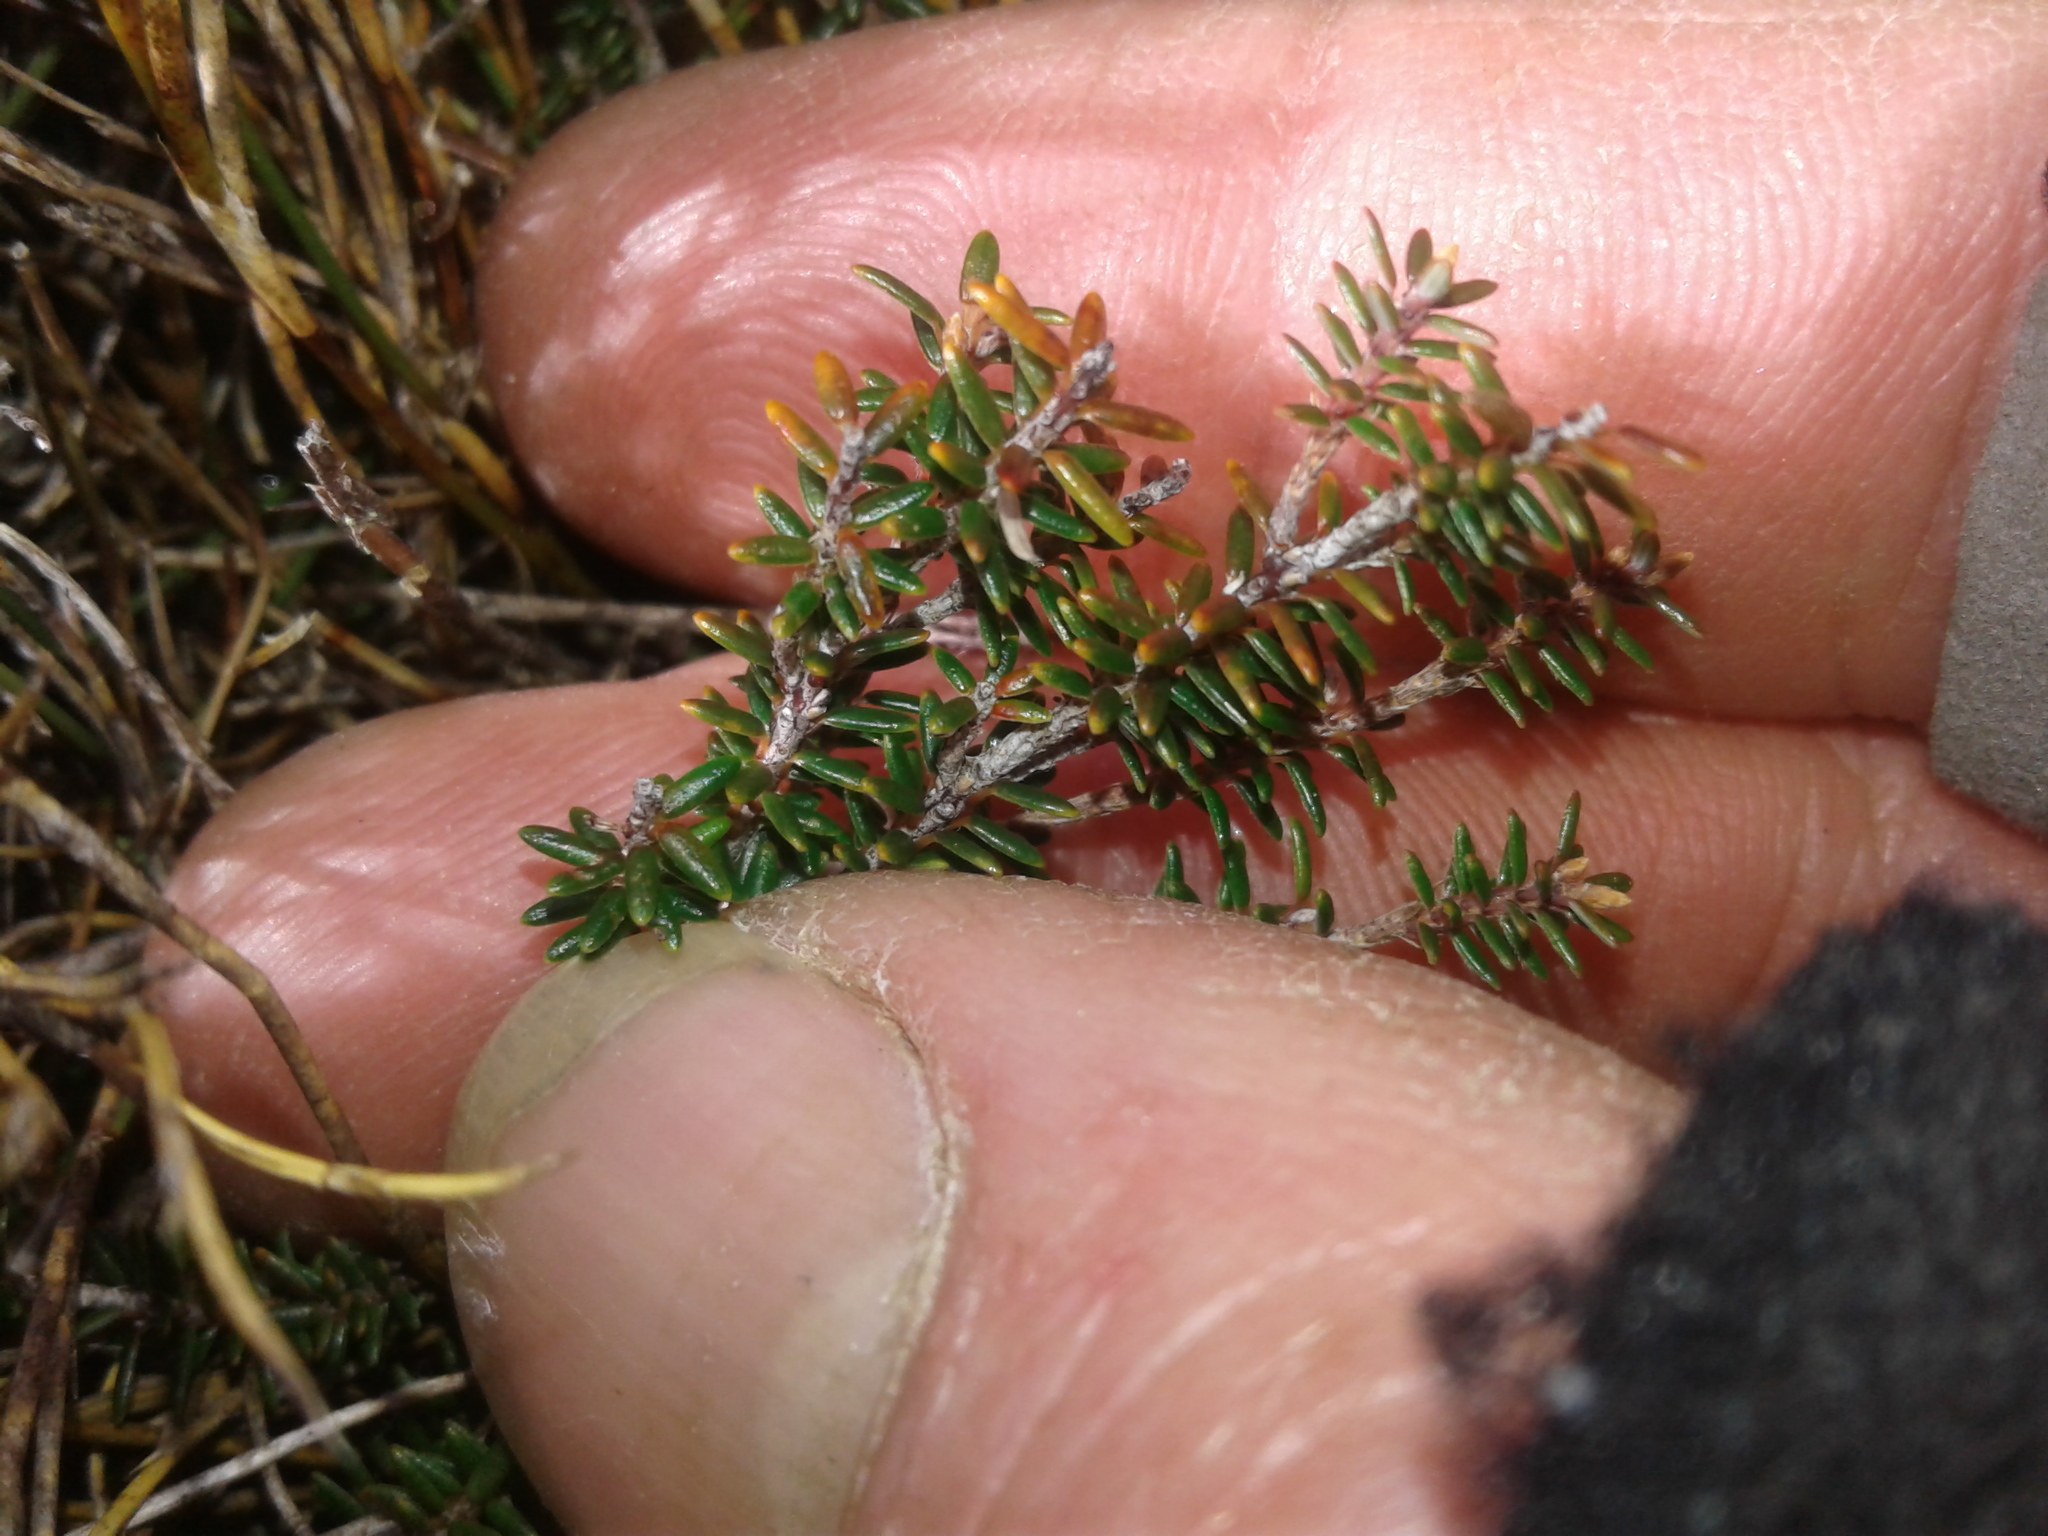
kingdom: Plantae
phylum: Tracheophyta
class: Magnoliopsida
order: Ericales
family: Ericaceae
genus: Androstoma
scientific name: Androstoma empetrifolia
